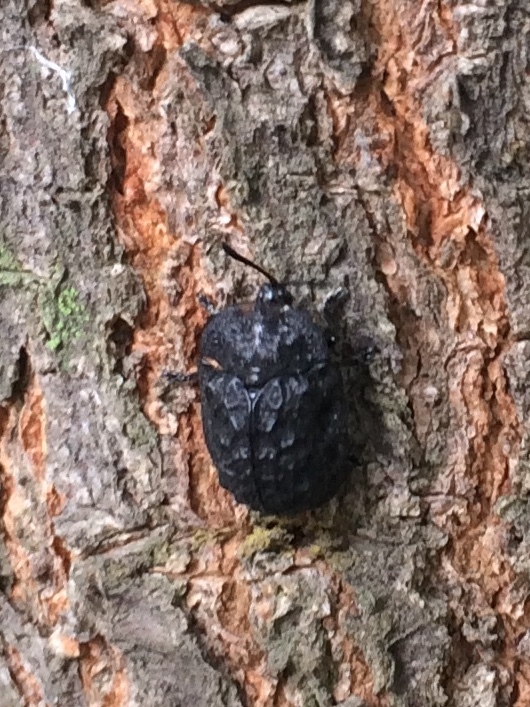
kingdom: Animalia
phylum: Arthropoda
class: Insecta
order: Coleoptera
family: Chrysomelidae
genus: Laccoptera
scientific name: Laccoptera foveolata
